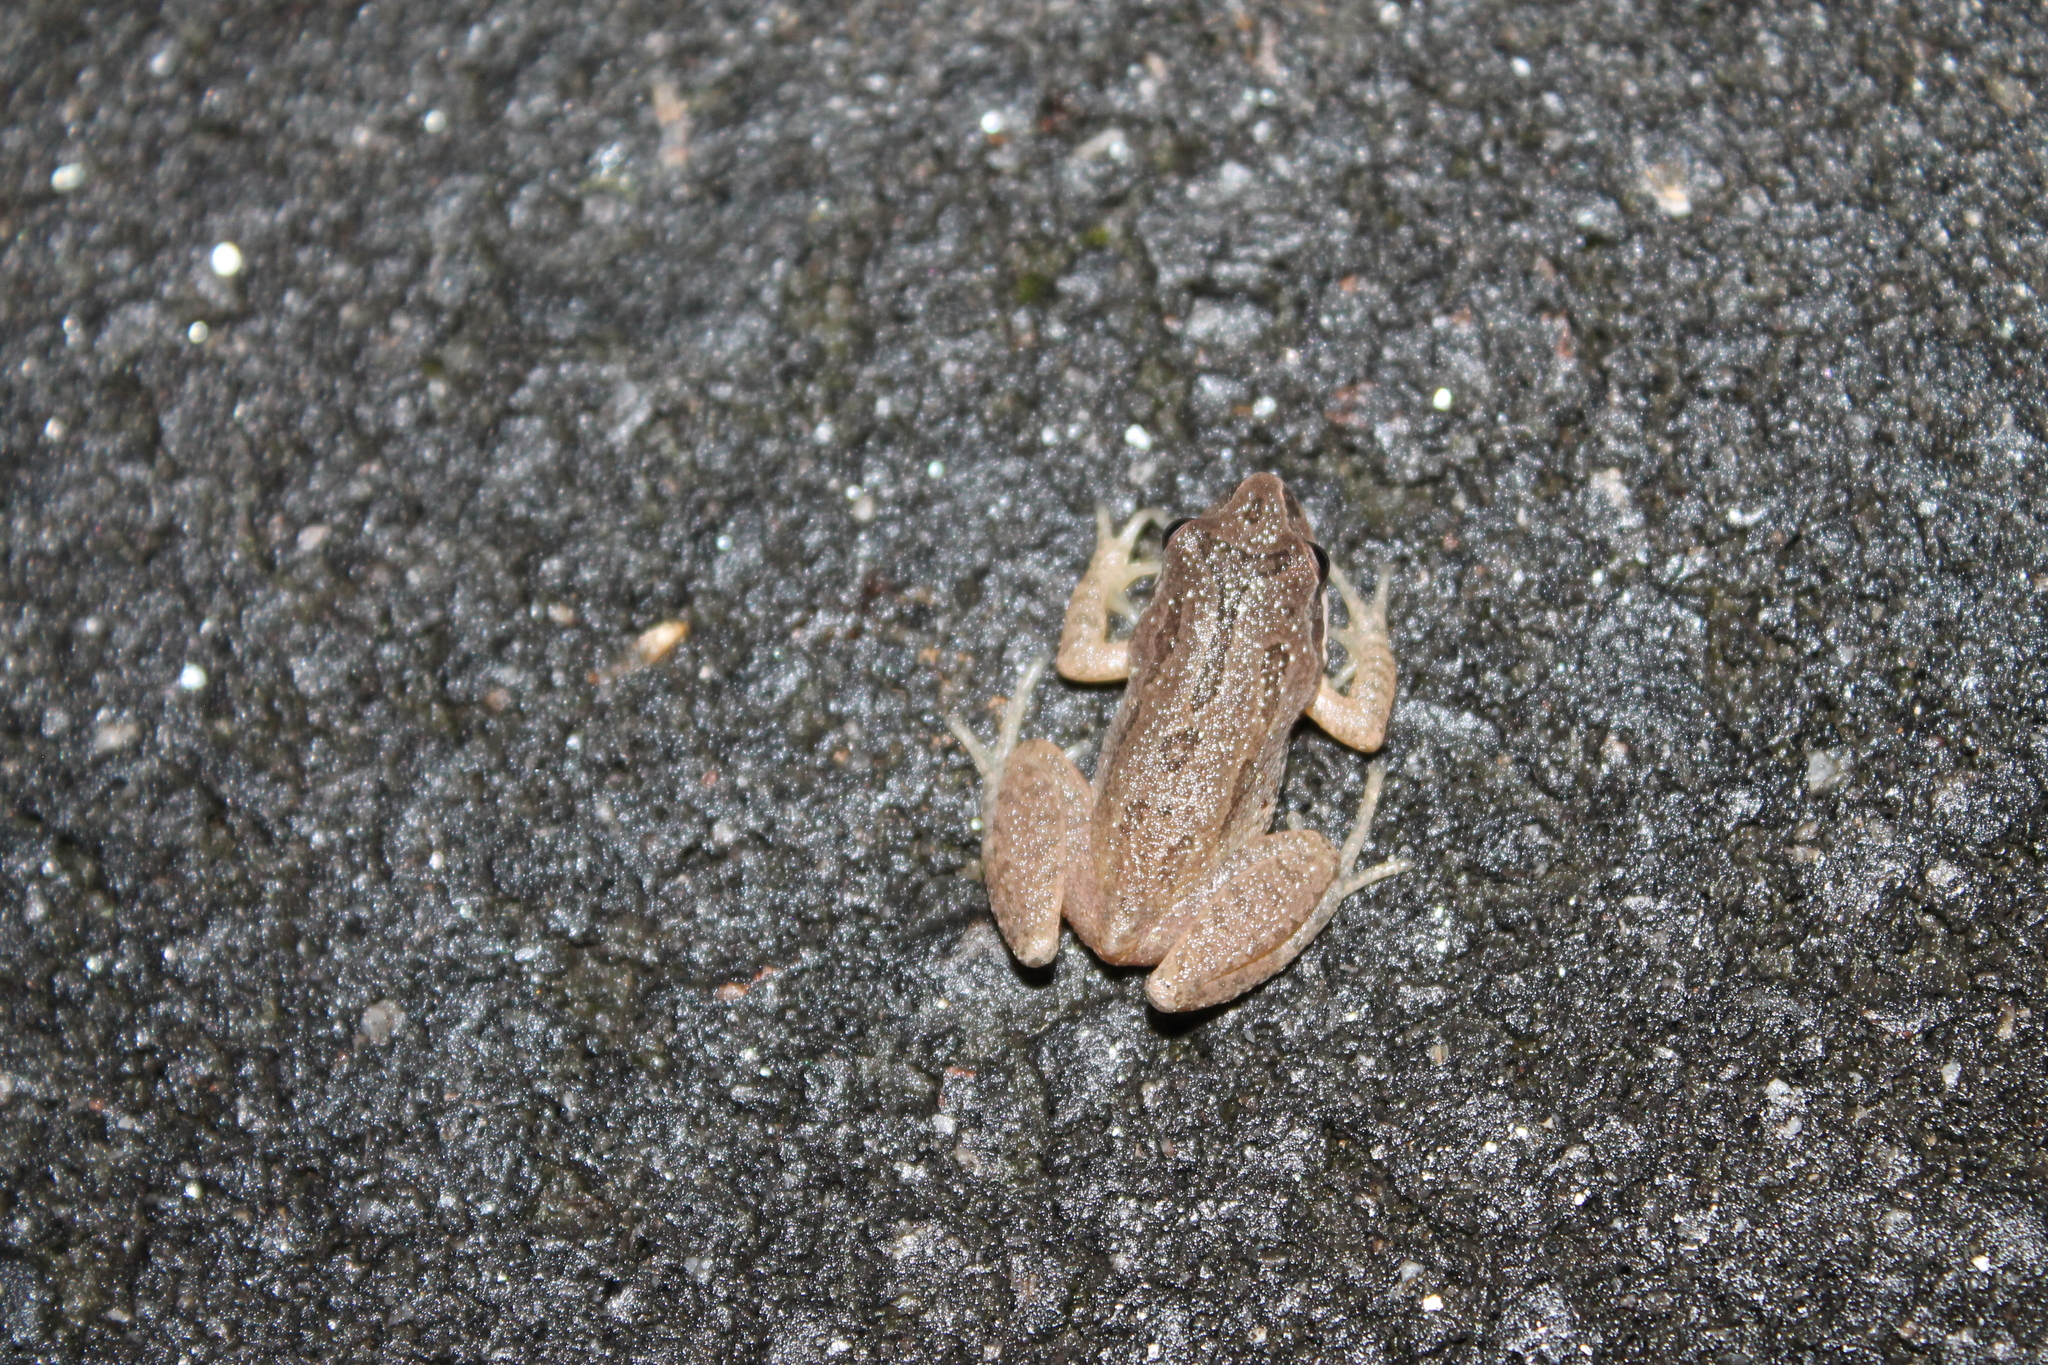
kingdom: Animalia
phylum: Chordata
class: Amphibia
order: Anura
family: Hylidae
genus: Pseudacris
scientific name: Pseudacris feriarum
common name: Upland chorus frog
